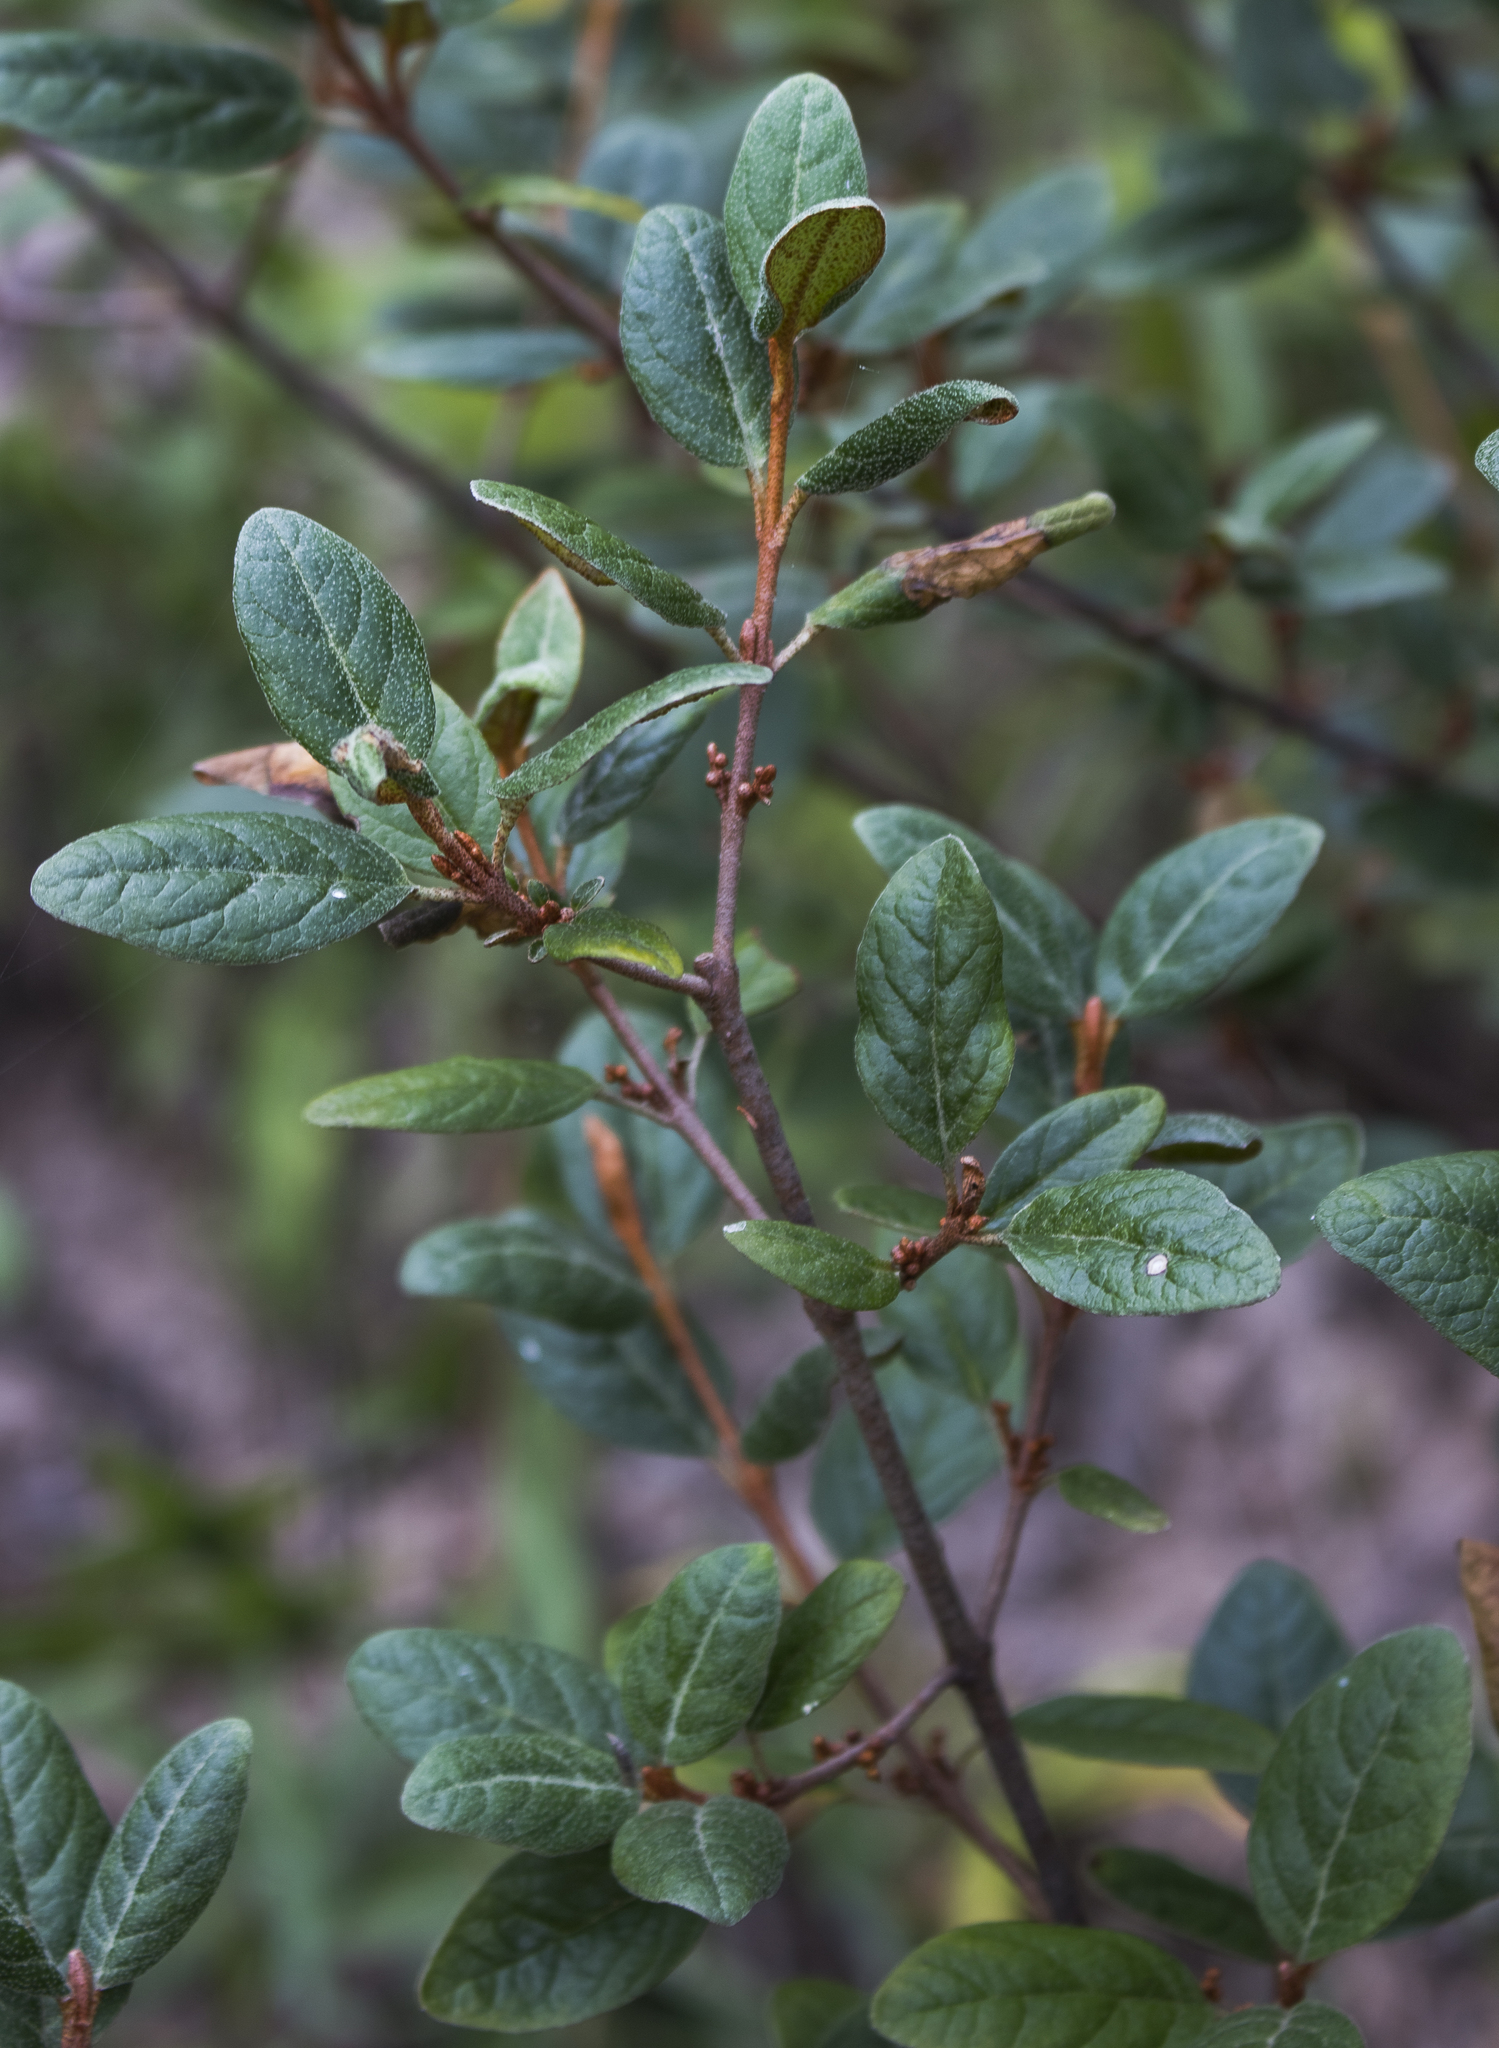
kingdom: Plantae
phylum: Tracheophyta
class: Magnoliopsida
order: Rosales
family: Elaeagnaceae
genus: Shepherdia
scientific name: Shepherdia canadensis
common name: Soapberry
